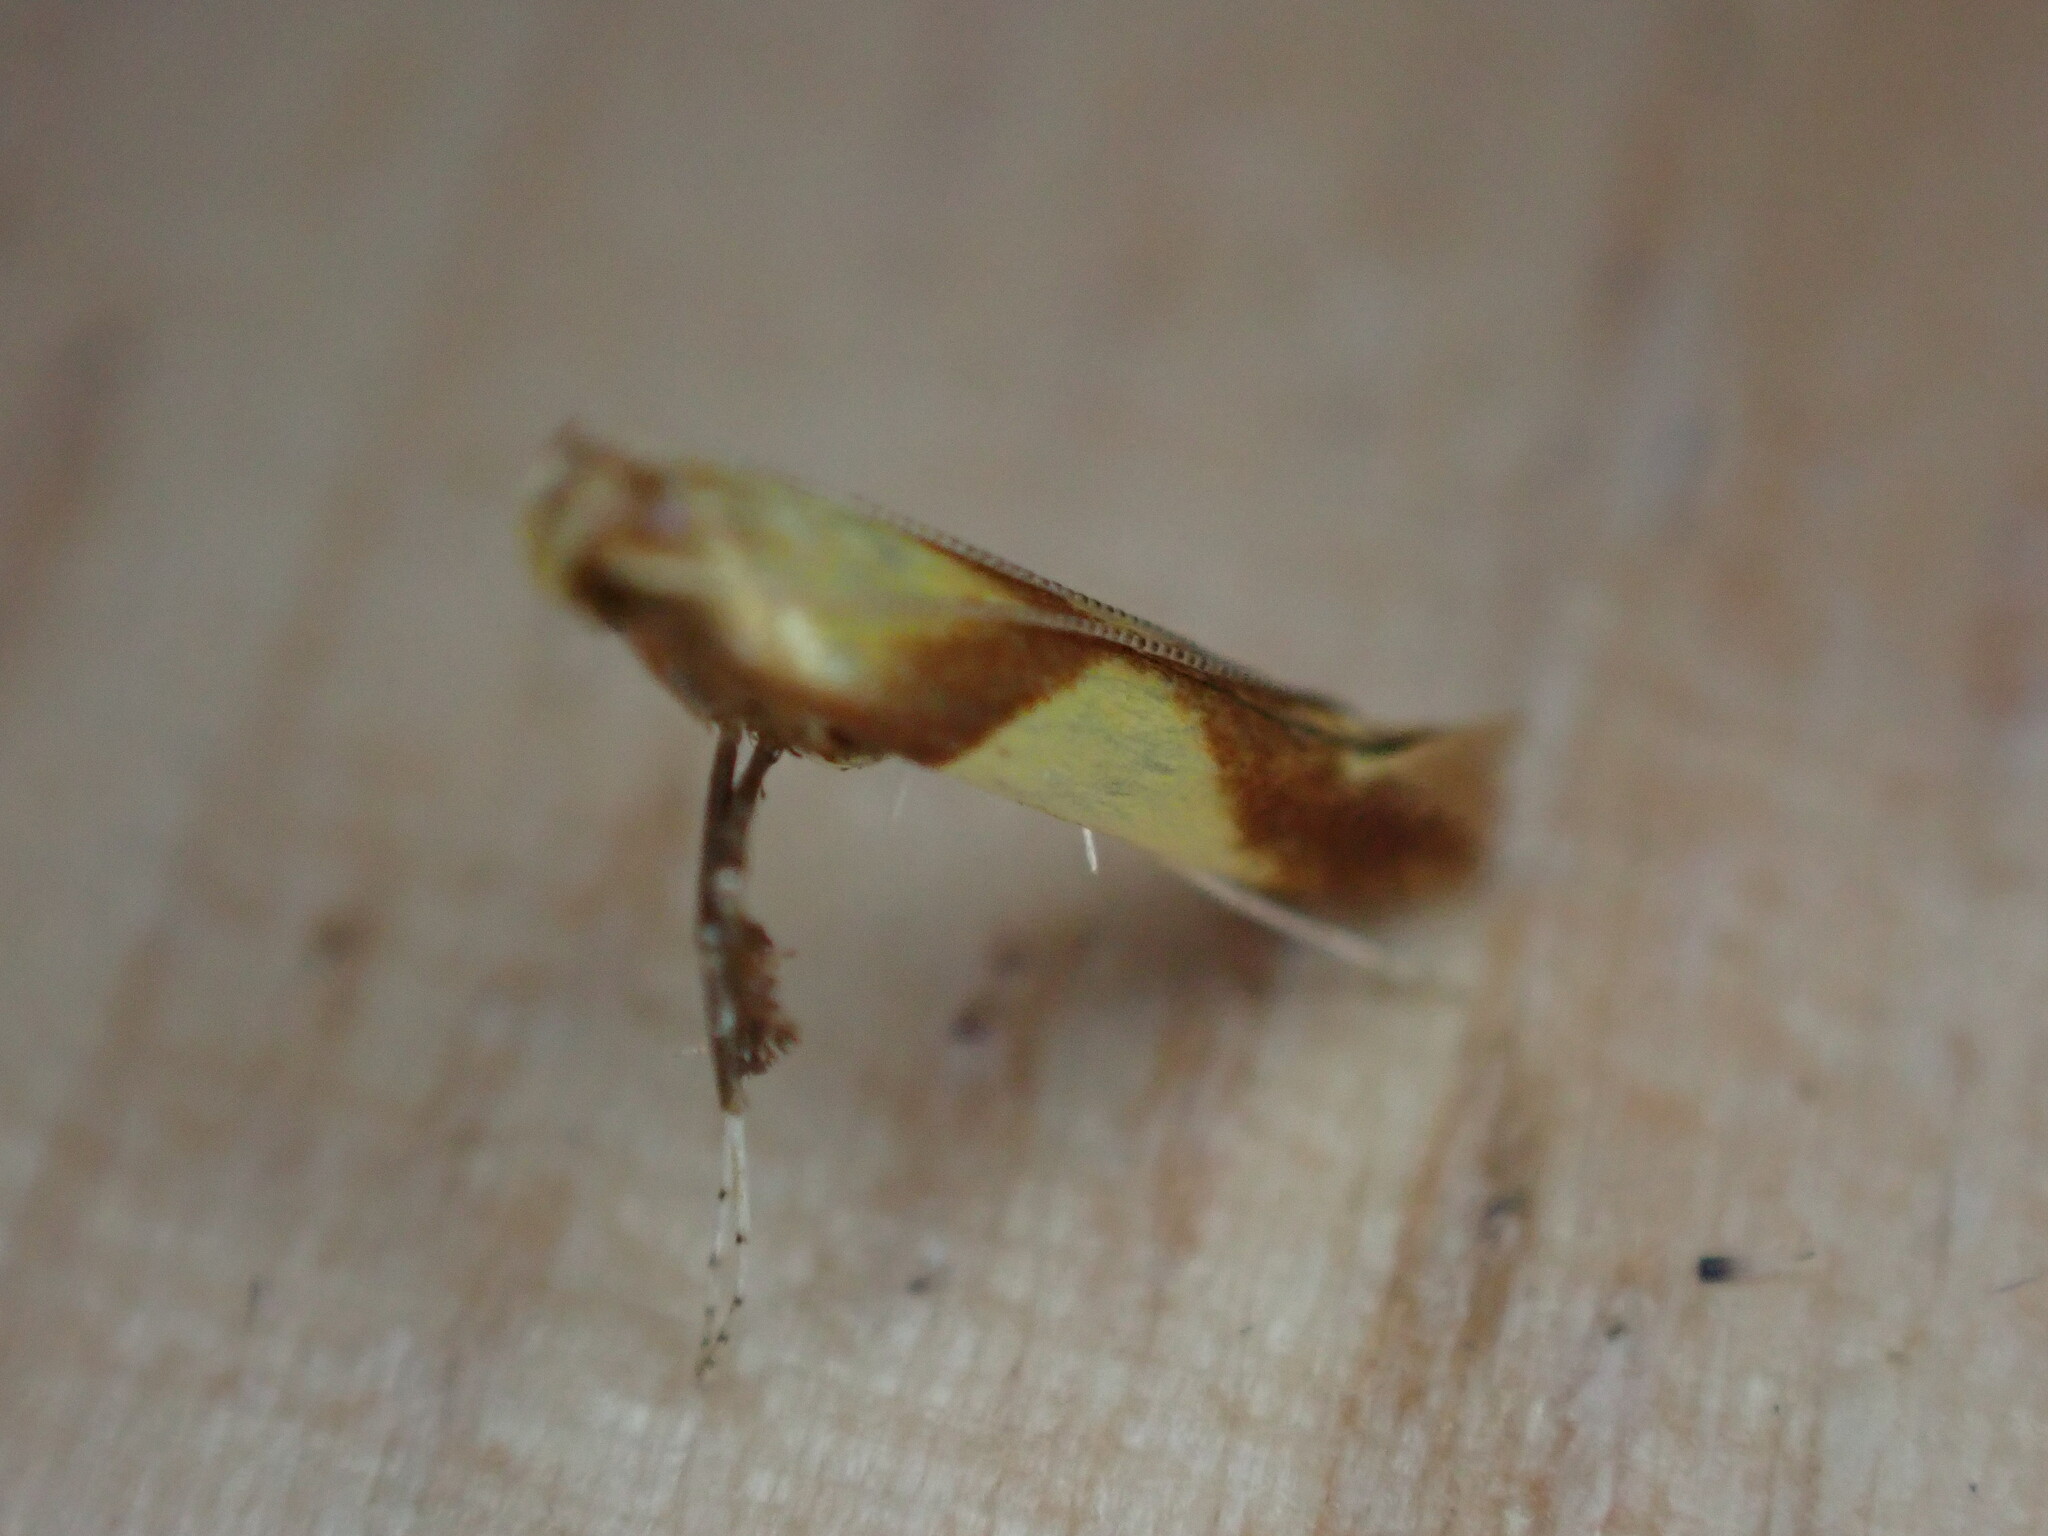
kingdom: Animalia
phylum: Arthropoda
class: Insecta
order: Lepidoptera
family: Gracillariidae
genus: Caloptilia
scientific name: Caloptilia robustella
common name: New oak slender
